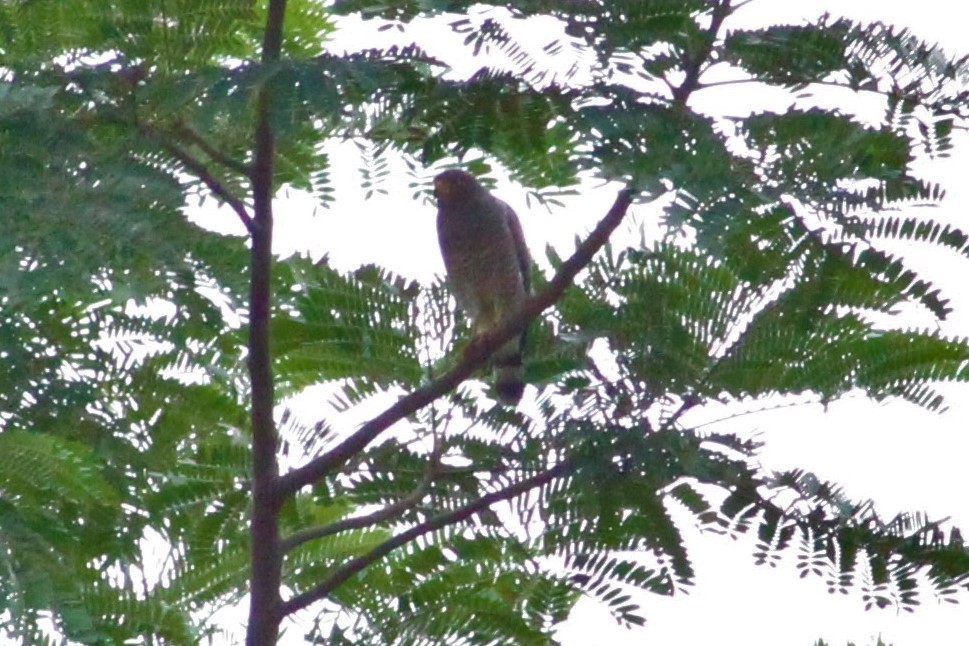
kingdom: Animalia
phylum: Chordata
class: Aves
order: Accipitriformes
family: Accipitridae
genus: Rupornis
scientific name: Rupornis magnirostris
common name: Roadside hawk
